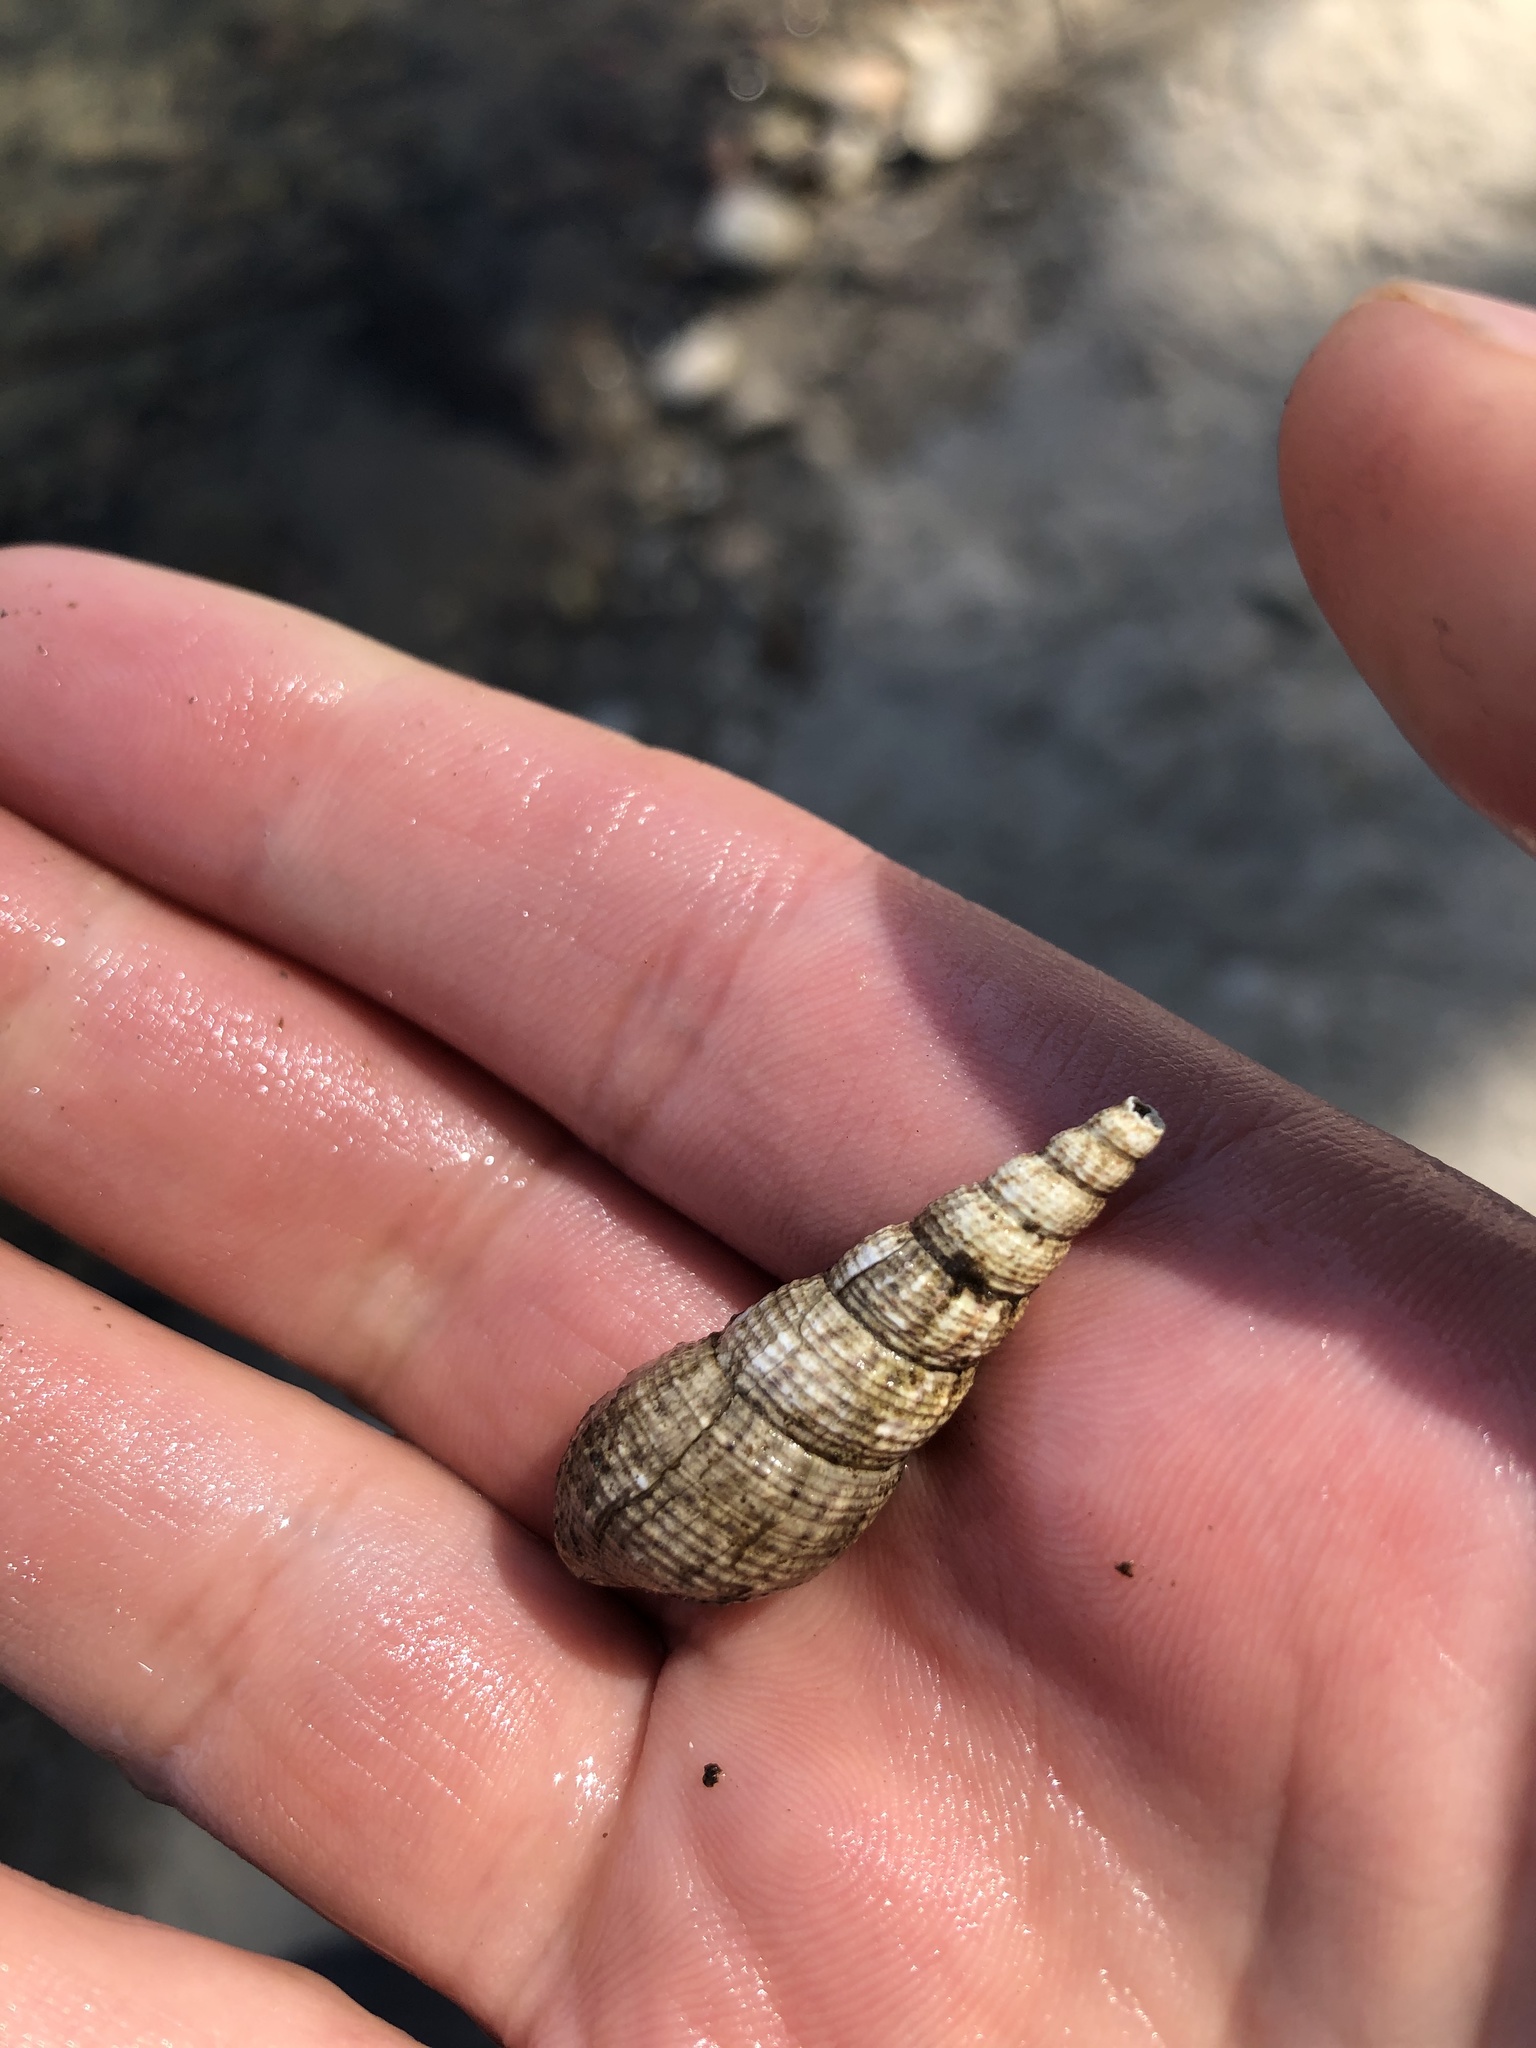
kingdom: Animalia
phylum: Mollusca
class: Gastropoda
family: Thiaridae
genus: Melanoides
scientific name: Melanoides tuberculata
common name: Red-rim melania
